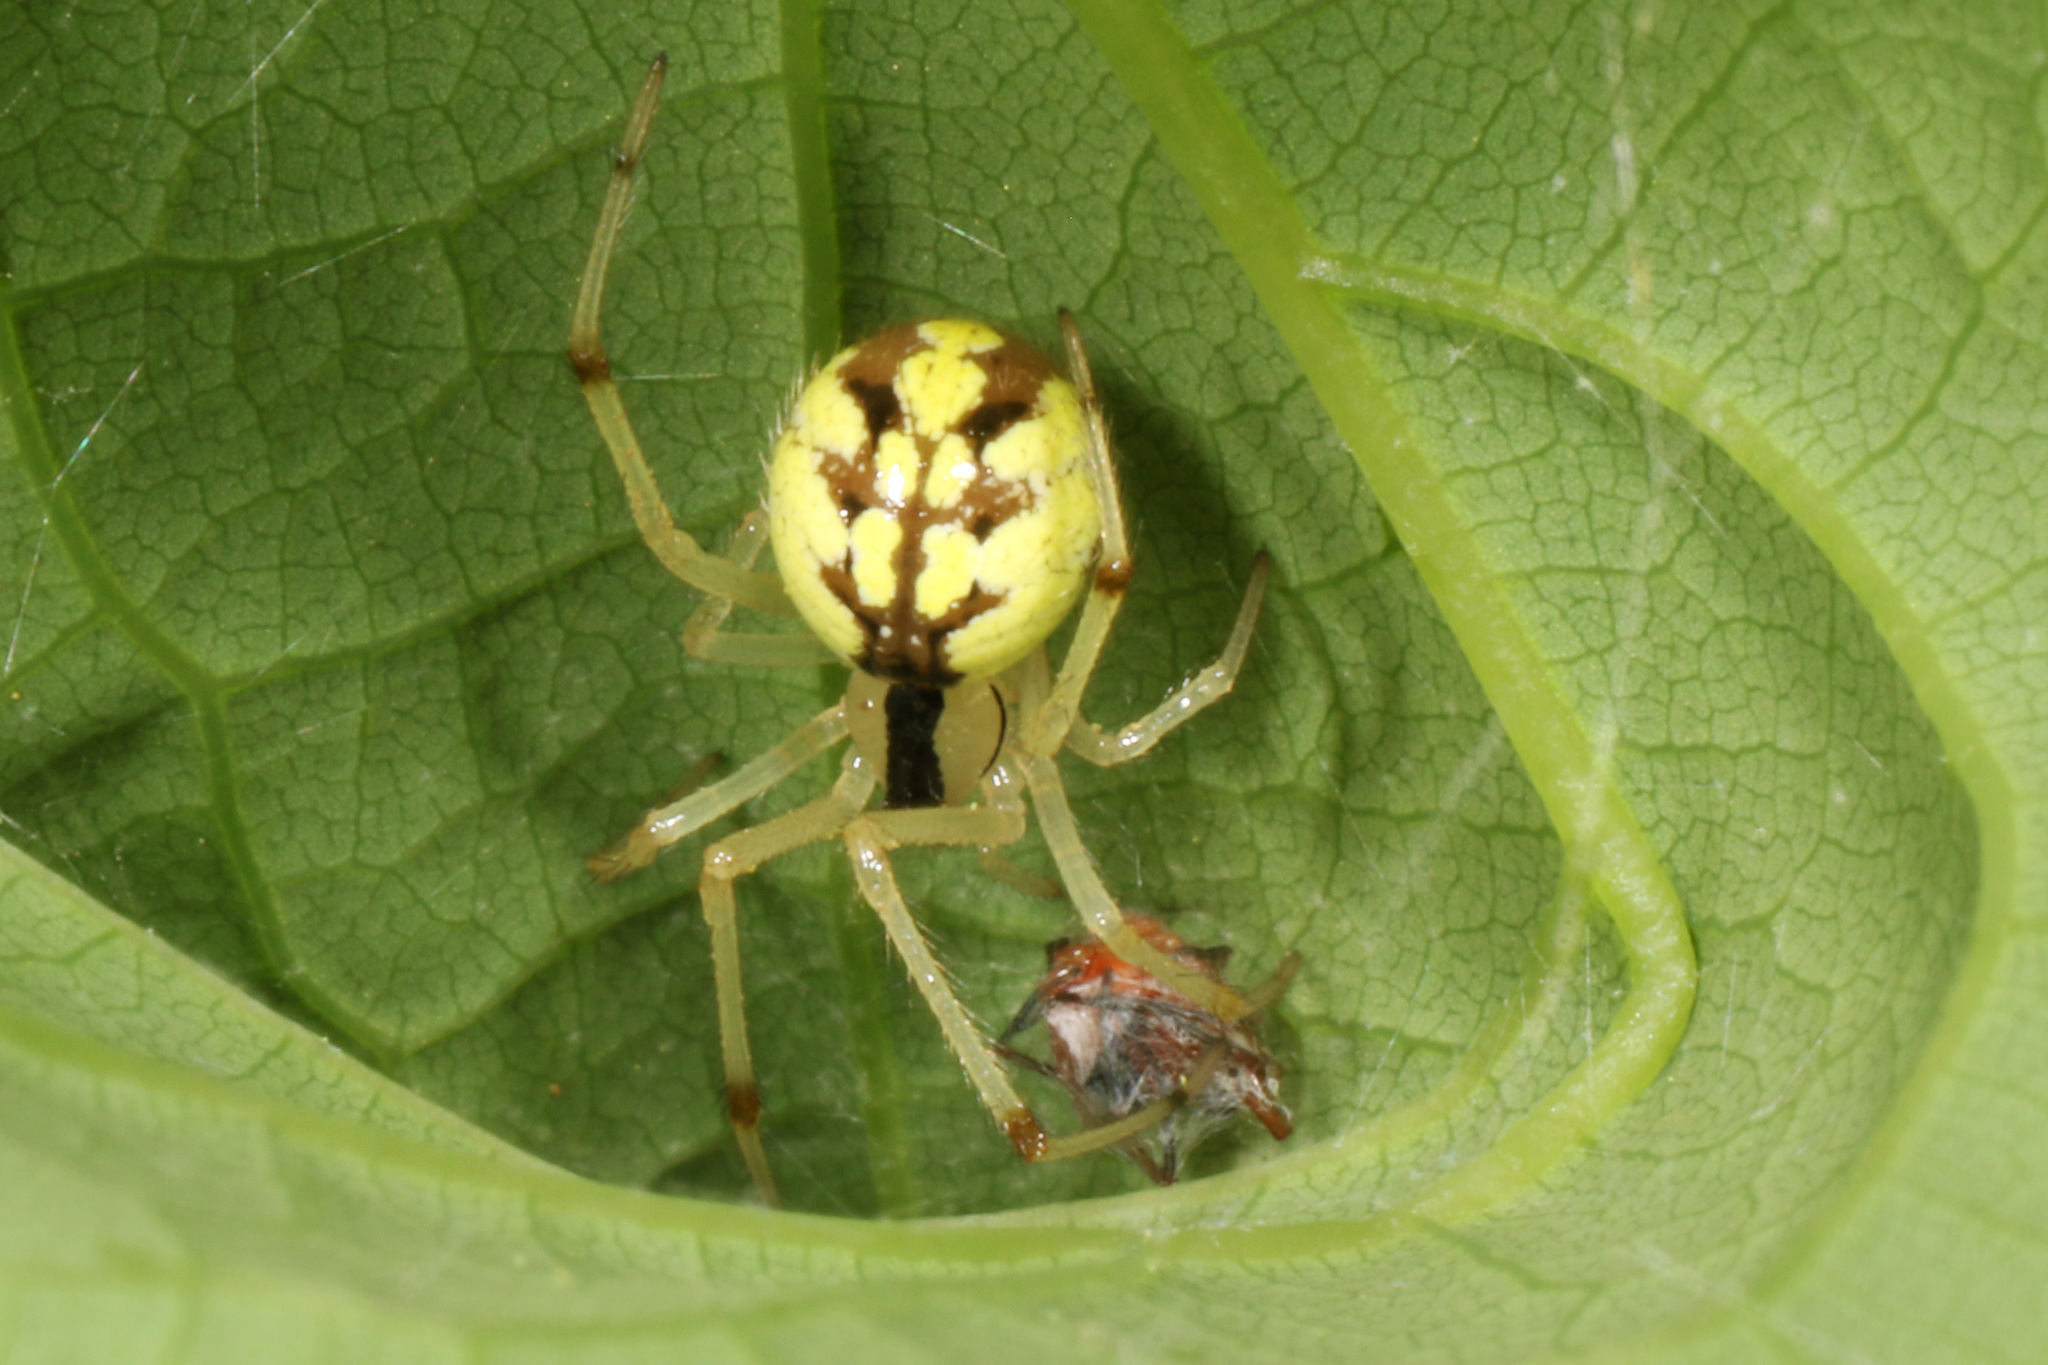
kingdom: Animalia
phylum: Arthropoda
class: Arachnida
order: Araneae
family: Theridiidae
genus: Phylloneta
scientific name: Phylloneta pictipes
